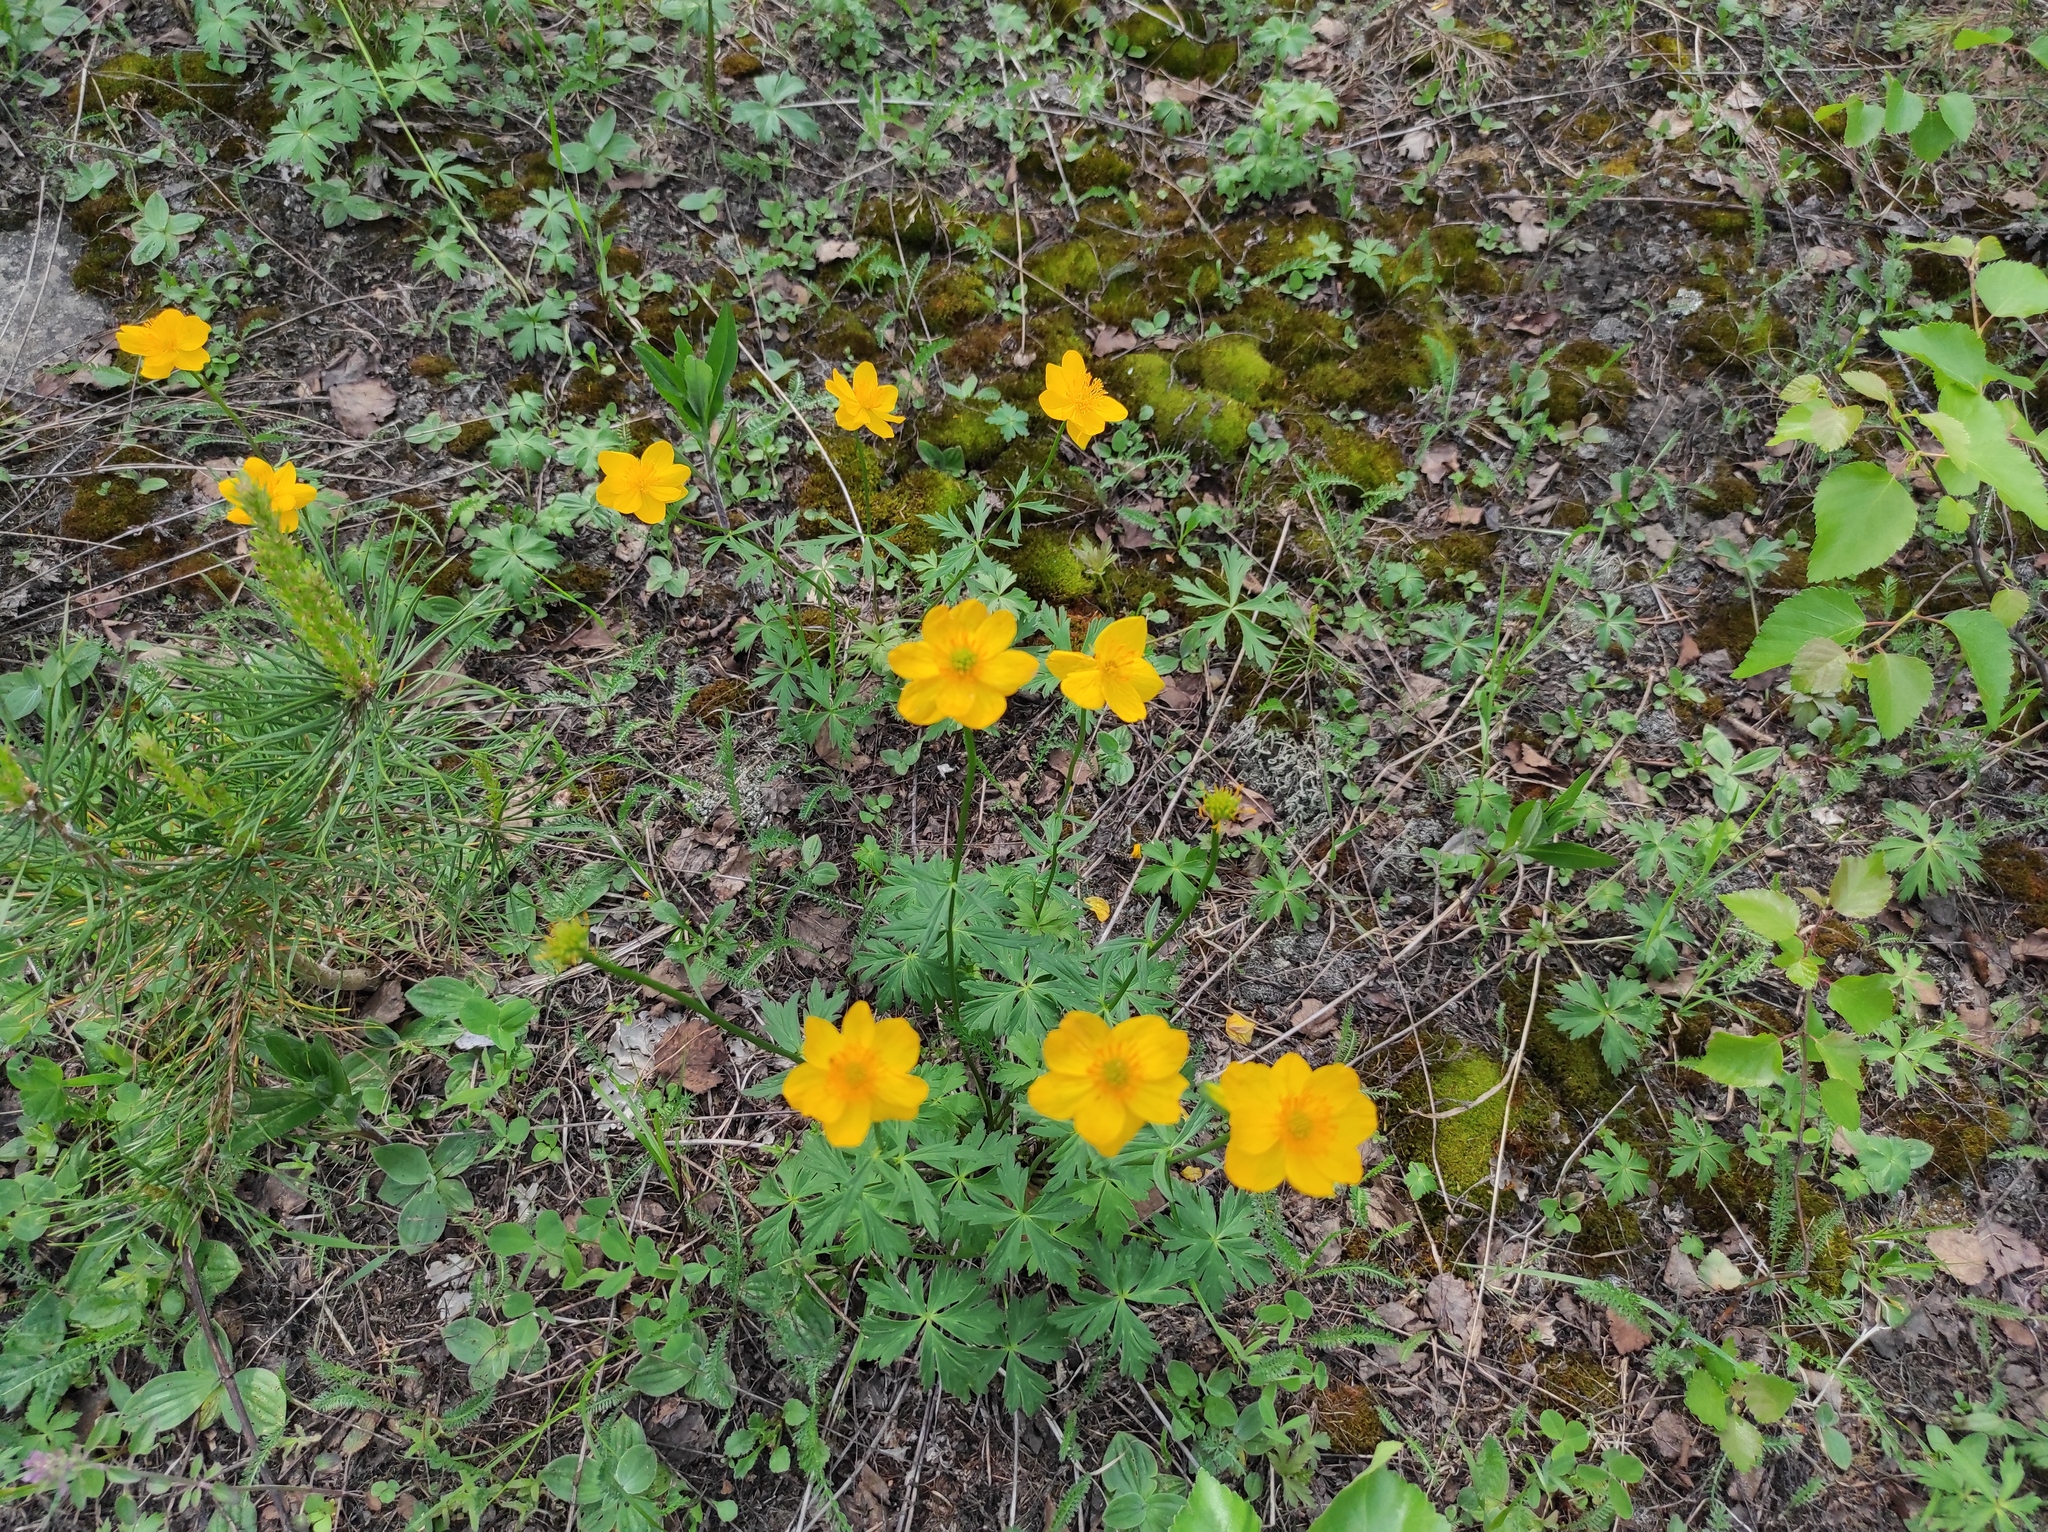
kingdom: Plantae
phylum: Tracheophyta
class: Pinopsida
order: Pinales
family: Pinaceae
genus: Pinus
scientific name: Pinus sylvestris
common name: Scots pine
